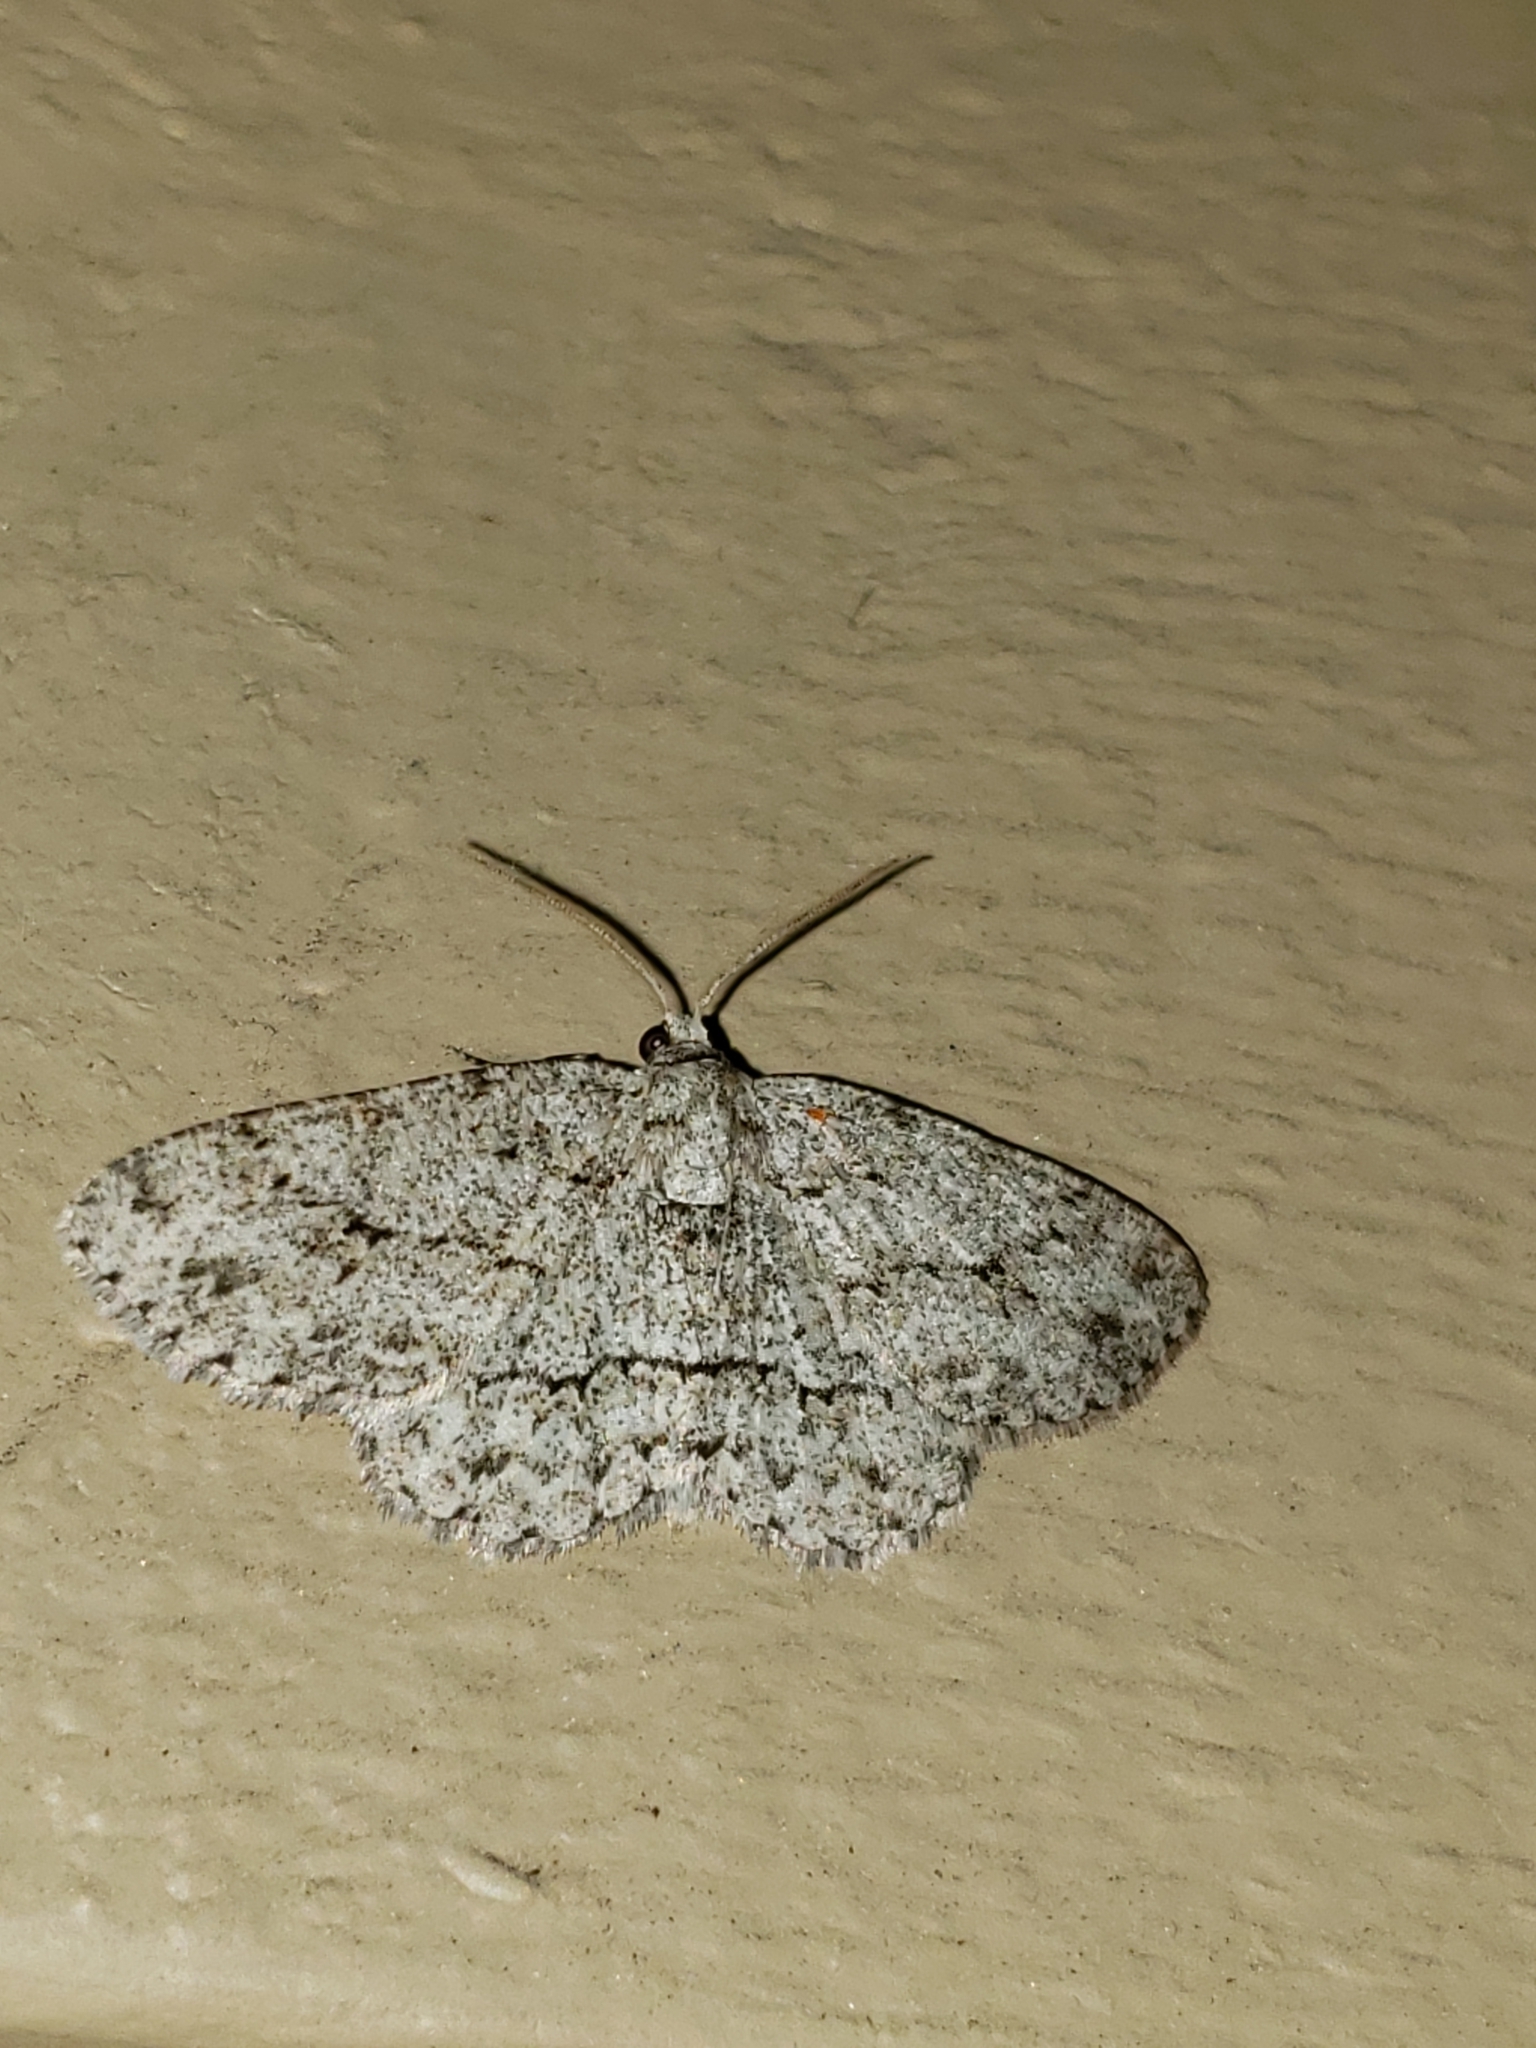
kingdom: Animalia
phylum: Arthropoda
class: Insecta
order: Lepidoptera
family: Geometridae
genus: Ectropis
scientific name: Ectropis crepuscularia
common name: Engrailed
